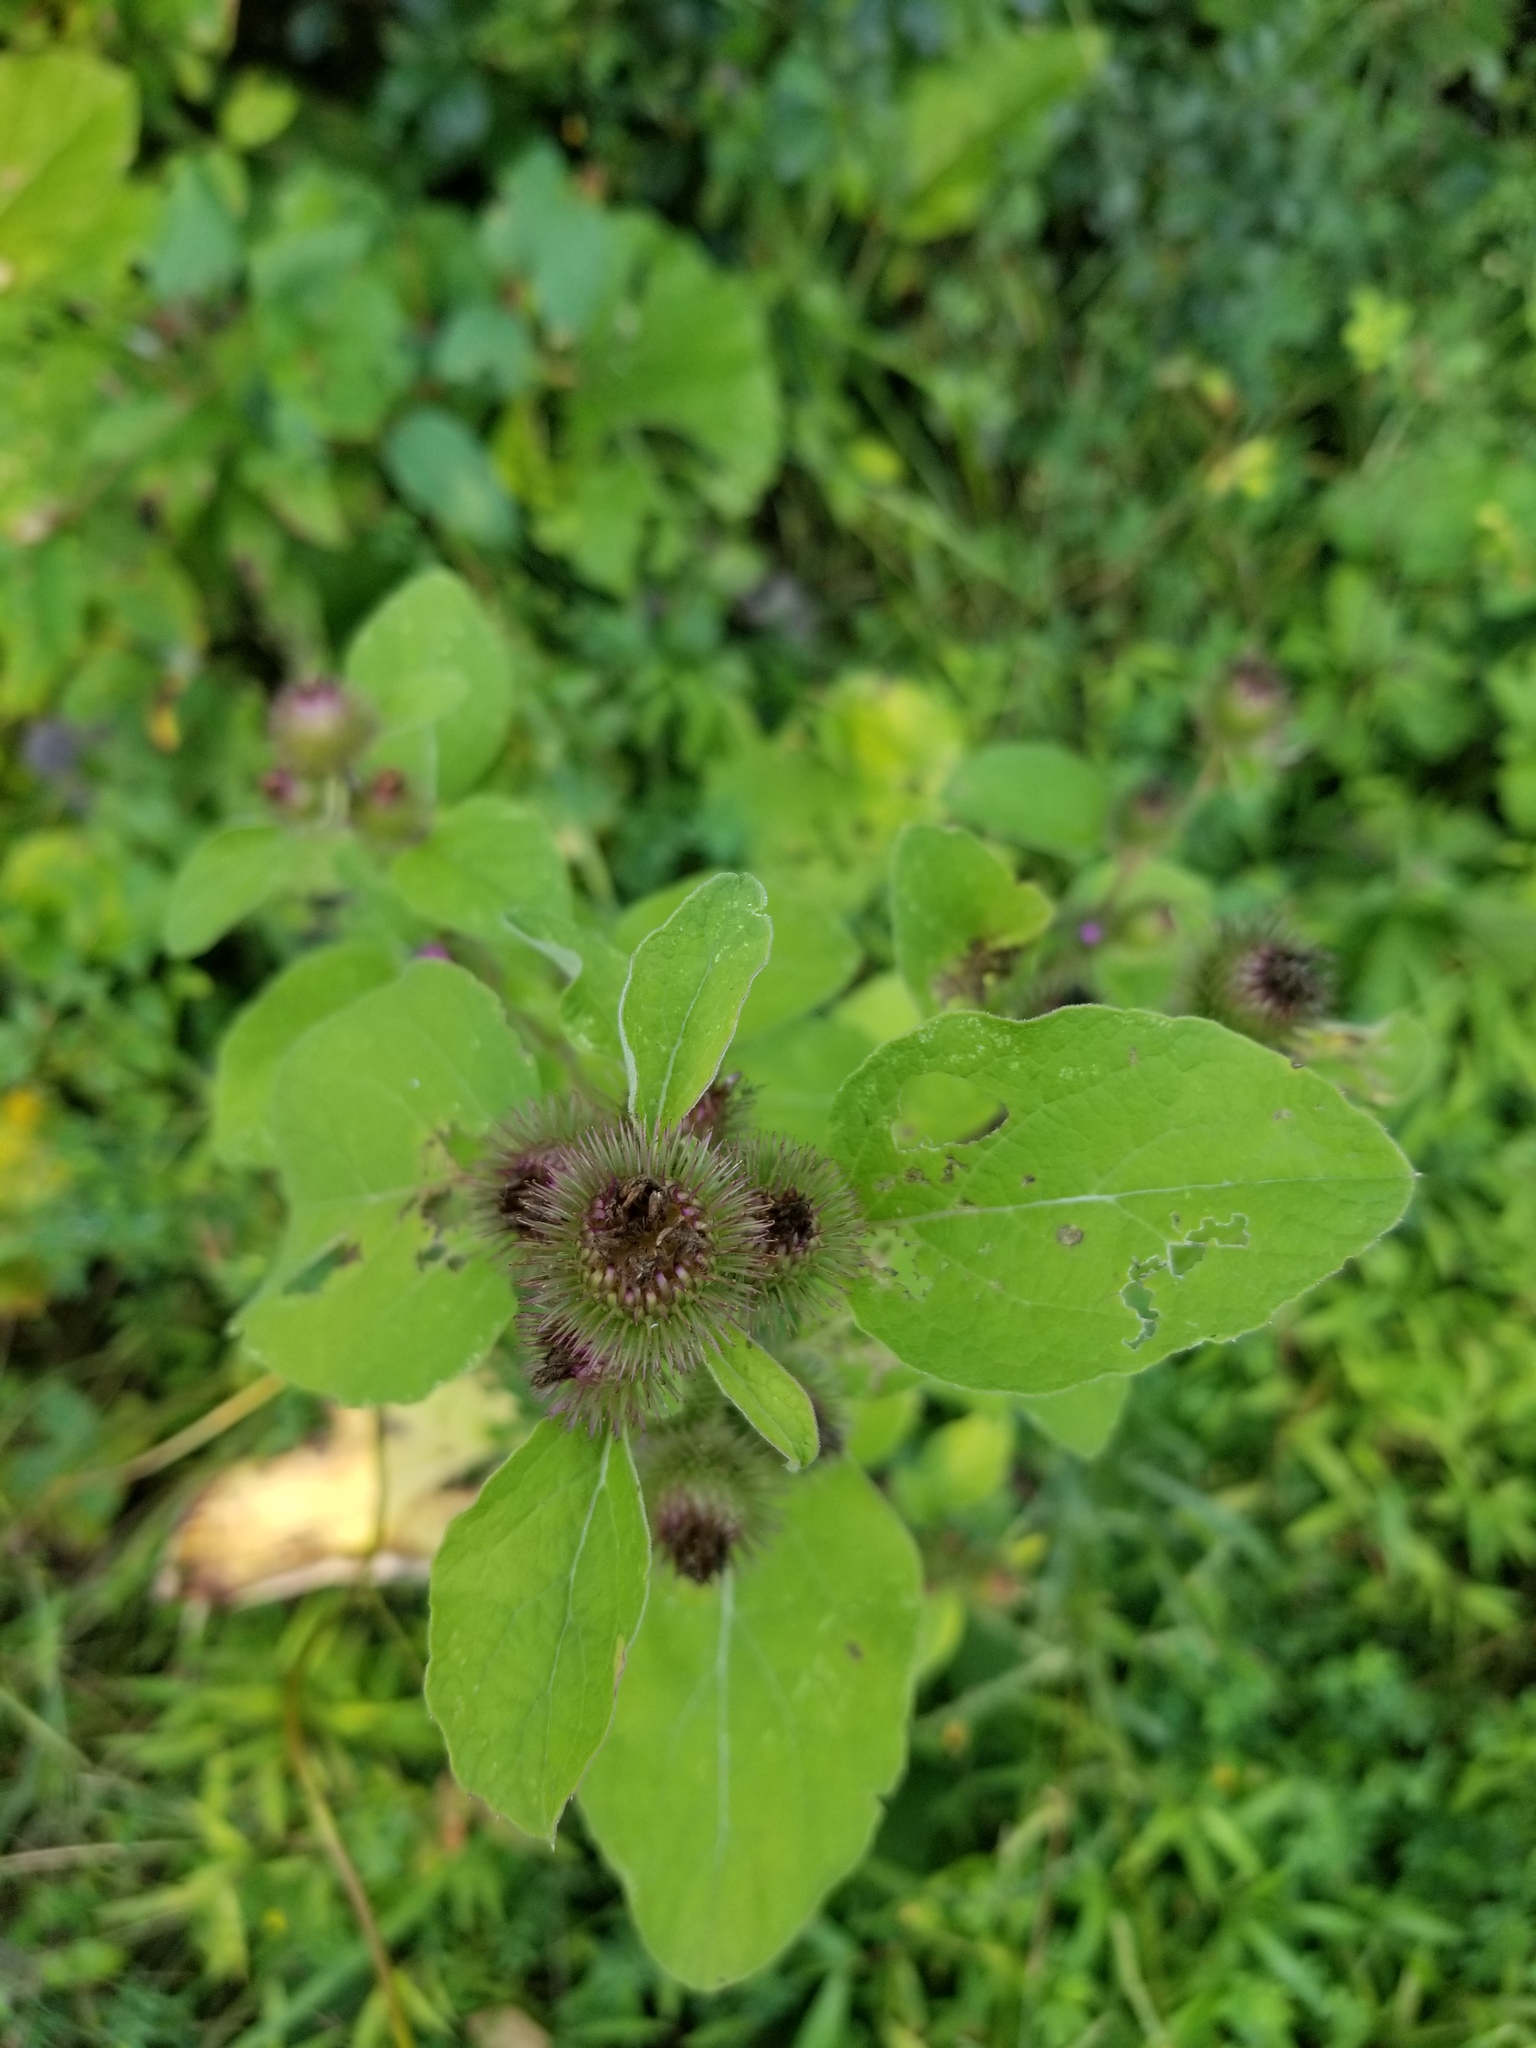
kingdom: Plantae
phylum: Tracheophyta
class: Magnoliopsida
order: Asterales
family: Asteraceae
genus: Arctium
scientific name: Arctium minus
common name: Lesser burdock
